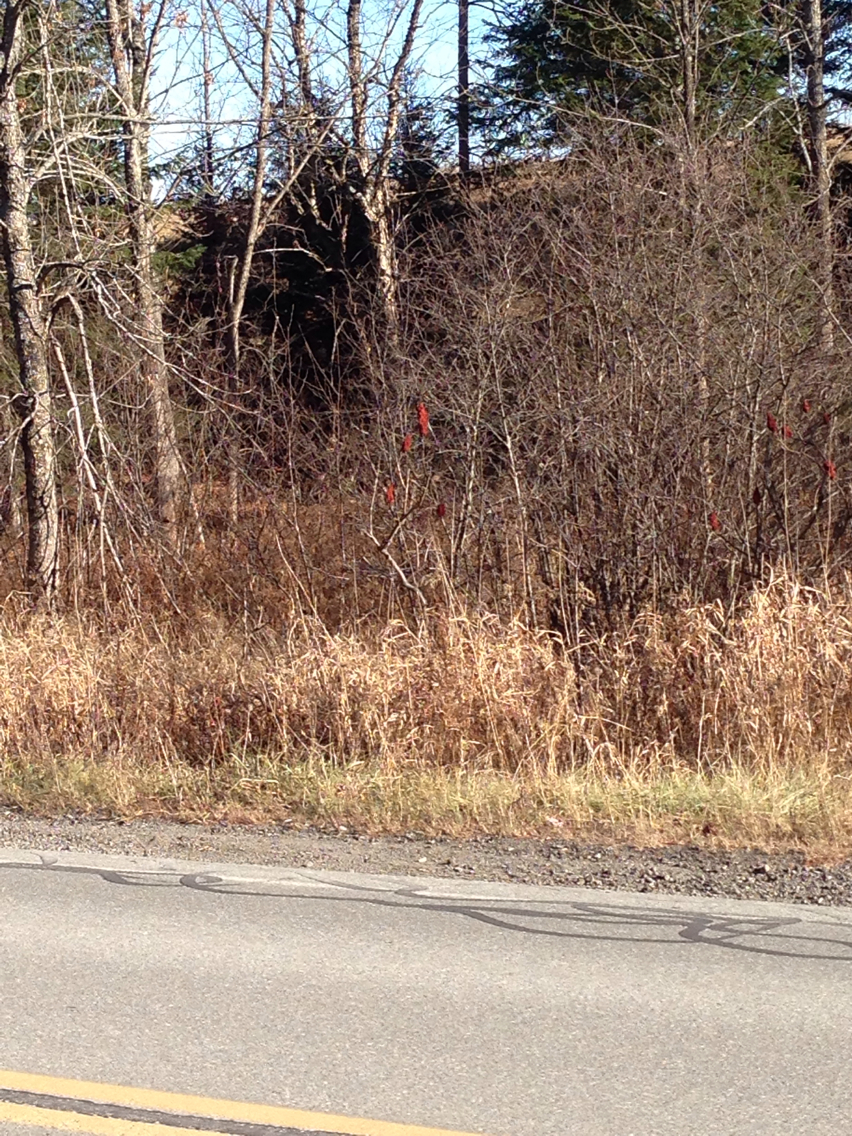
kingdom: Plantae
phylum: Tracheophyta
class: Magnoliopsida
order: Sapindales
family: Anacardiaceae
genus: Rhus
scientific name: Rhus typhina
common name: Staghorn sumac
